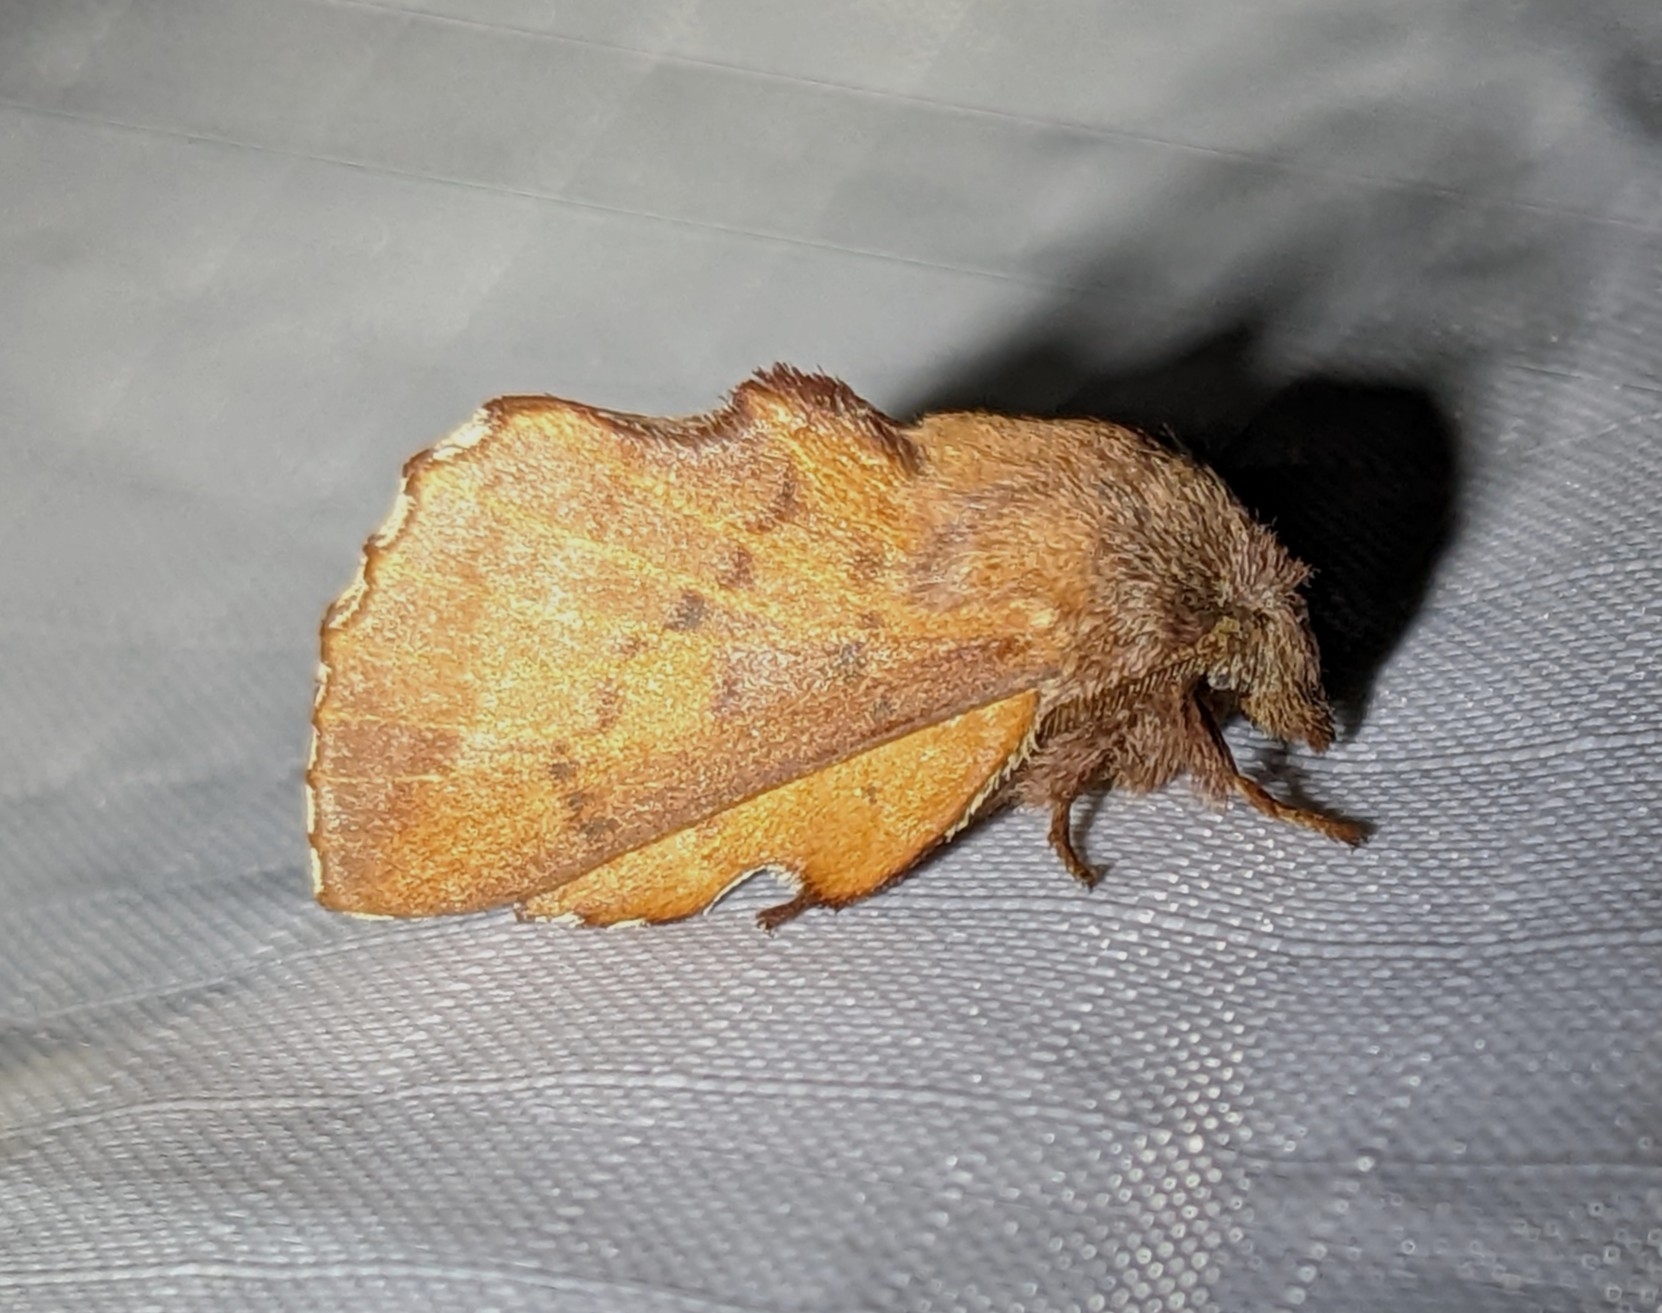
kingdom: Animalia
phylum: Arthropoda
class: Insecta
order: Lepidoptera
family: Lasiocampidae
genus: Phyllodesma
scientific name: Phyllodesma americana
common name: American lappet moth
